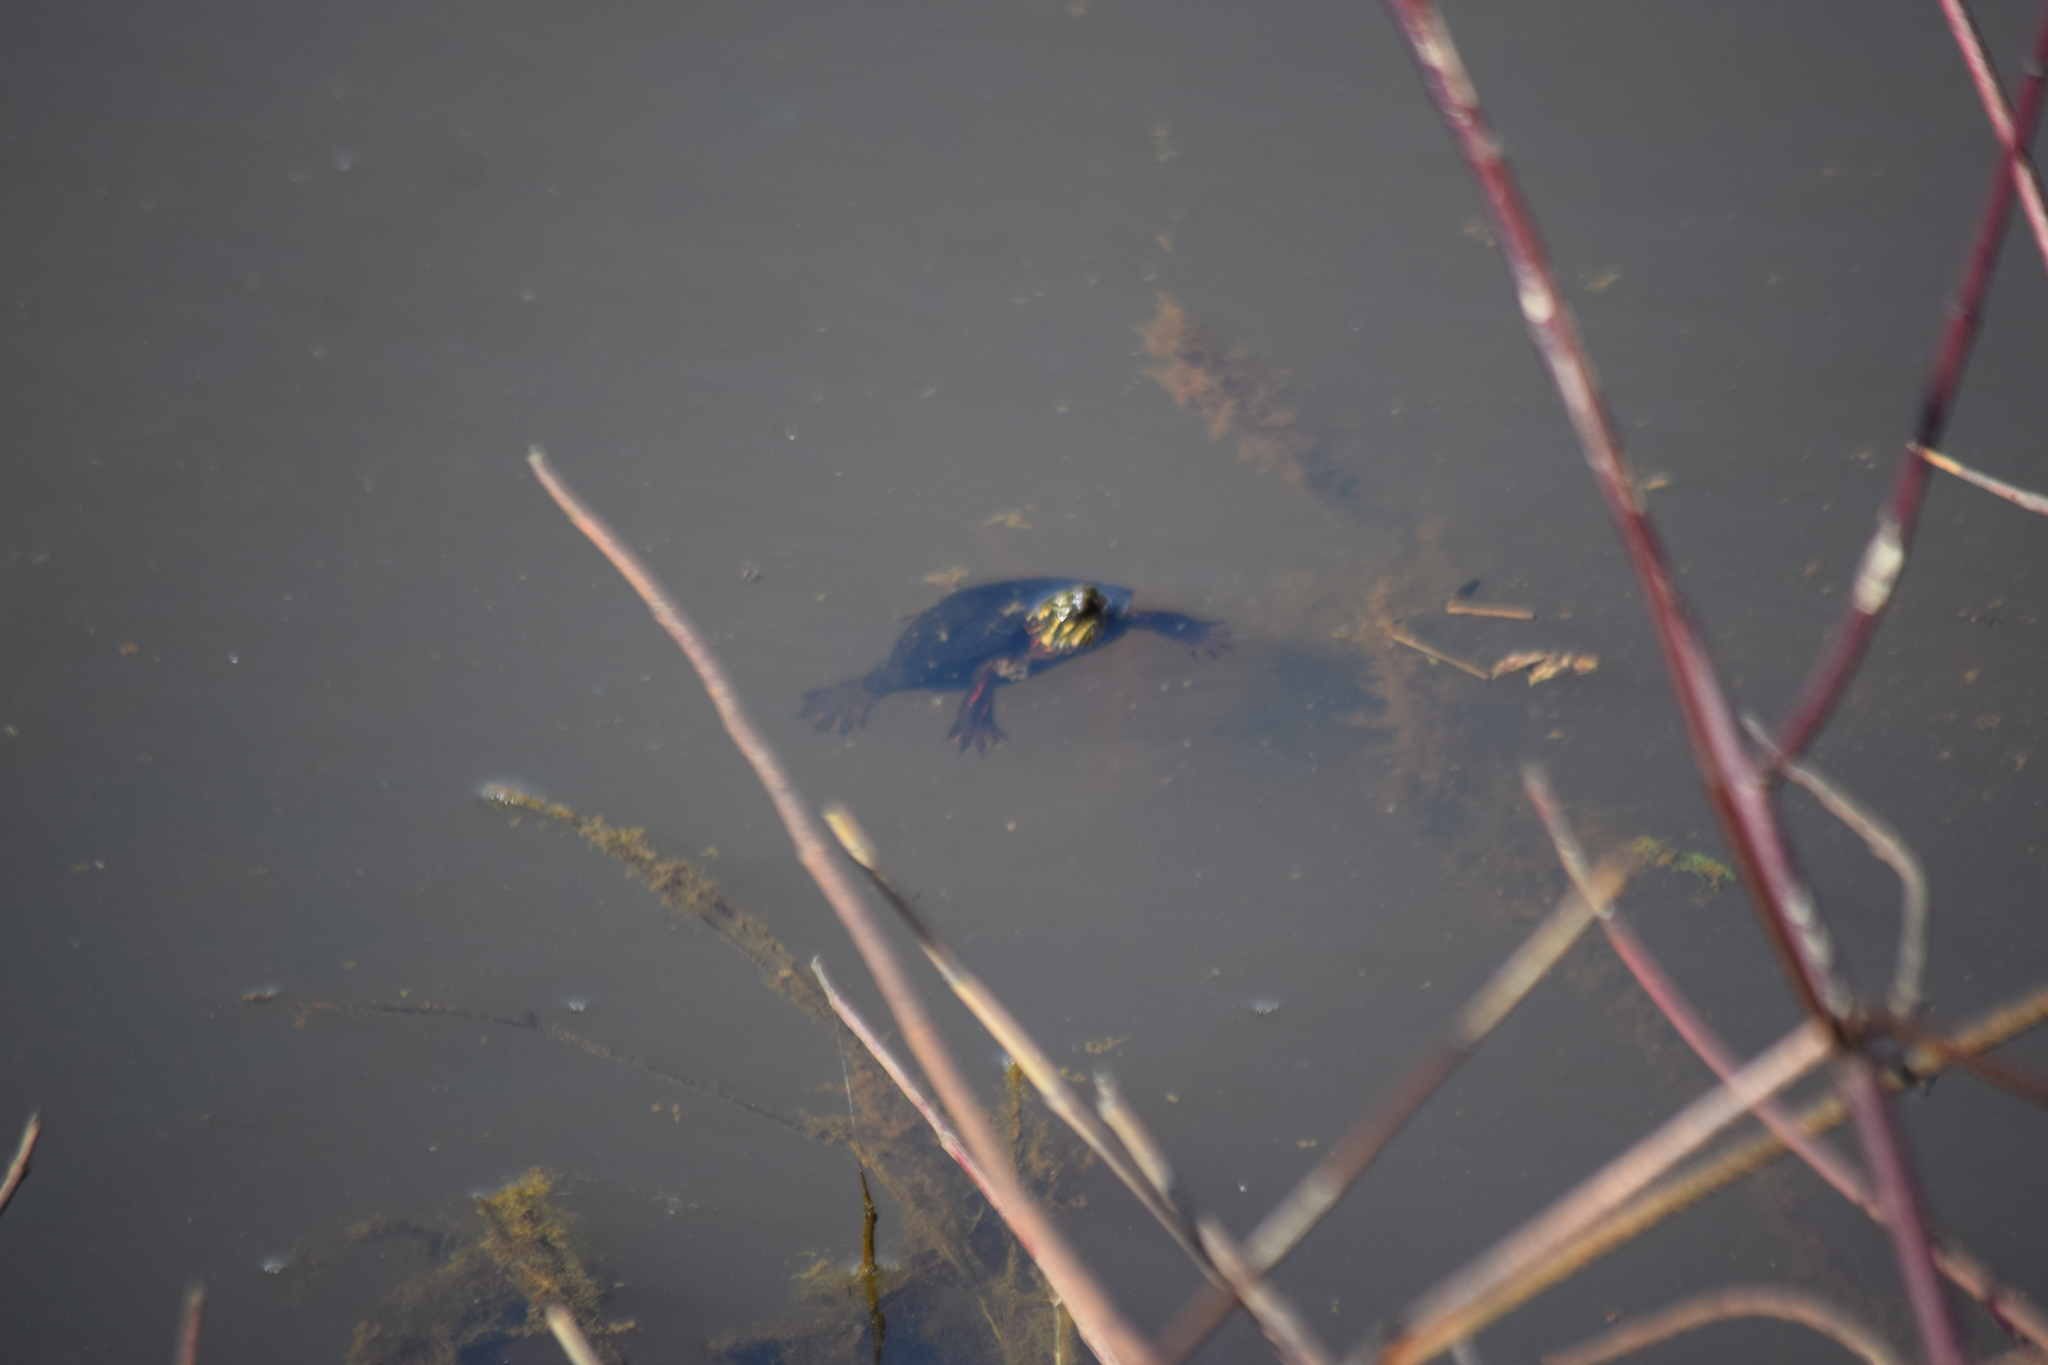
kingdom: Animalia
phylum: Chordata
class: Testudines
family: Emydidae
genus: Chrysemys
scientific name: Chrysemys picta
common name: Painted turtle
